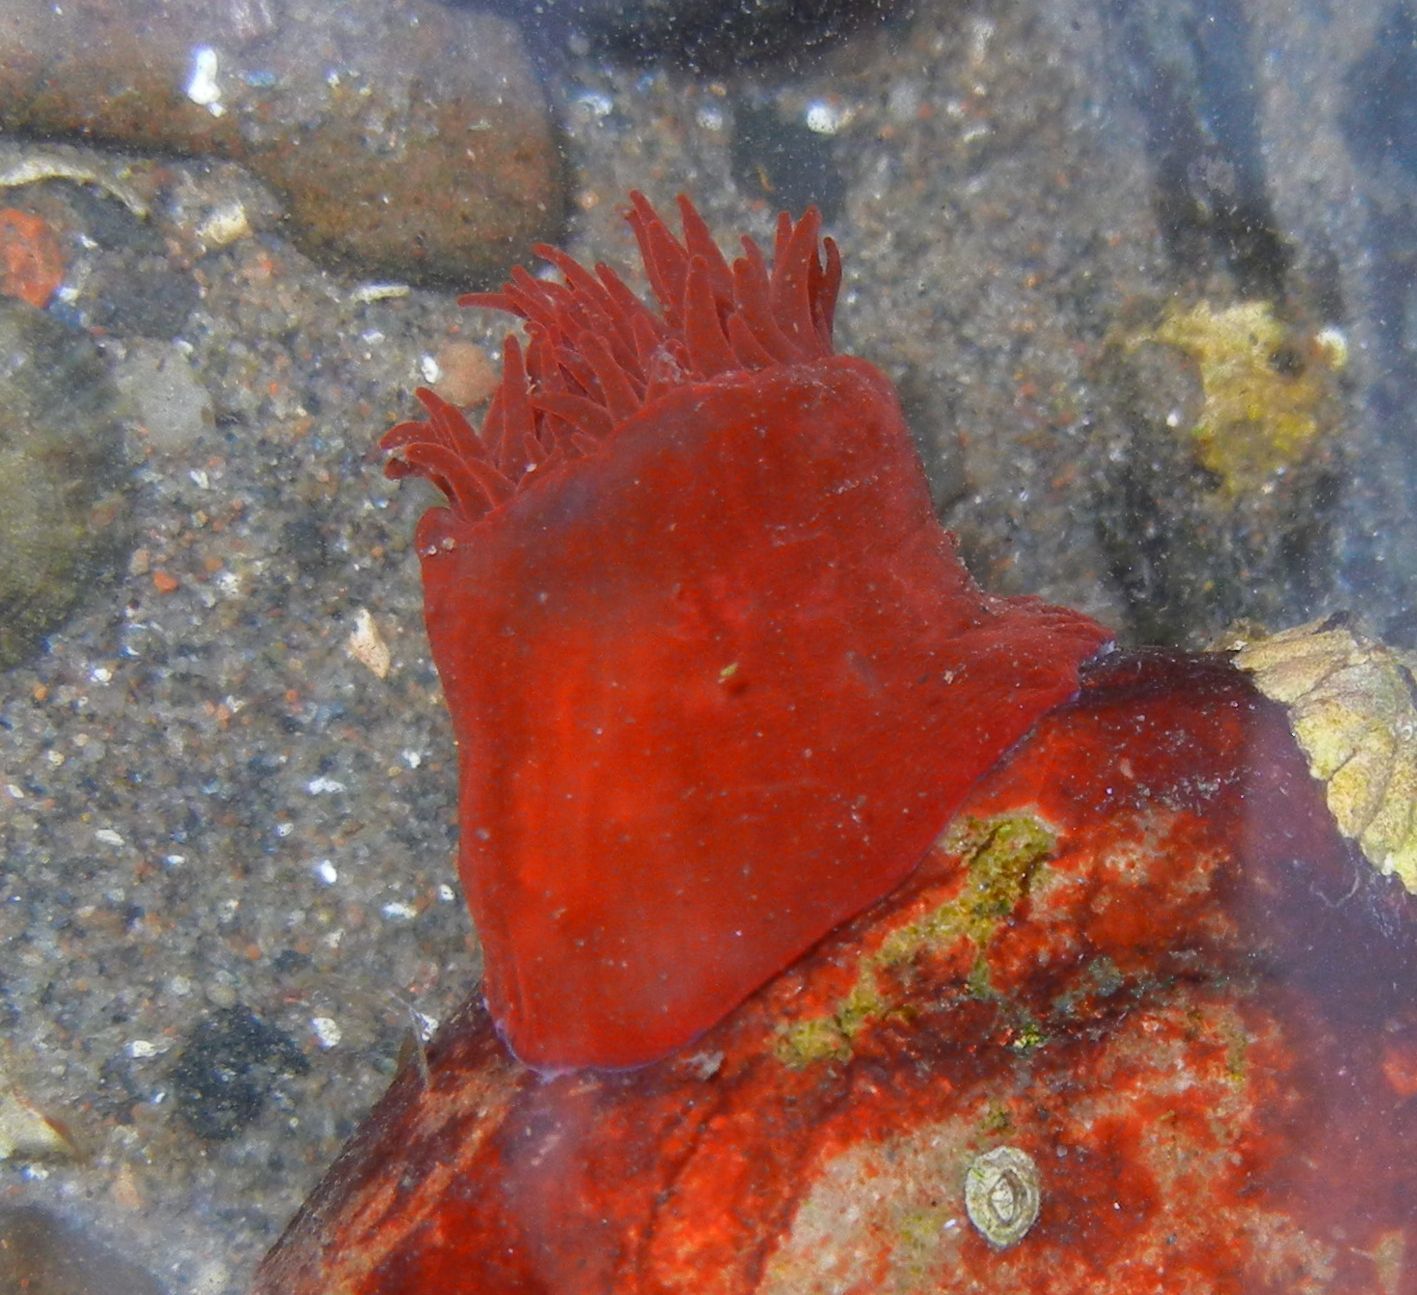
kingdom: Animalia
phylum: Cnidaria
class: Anthozoa
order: Actiniaria
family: Actiniidae
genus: Actinia
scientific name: Actinia equina
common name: Beadlet anemone
